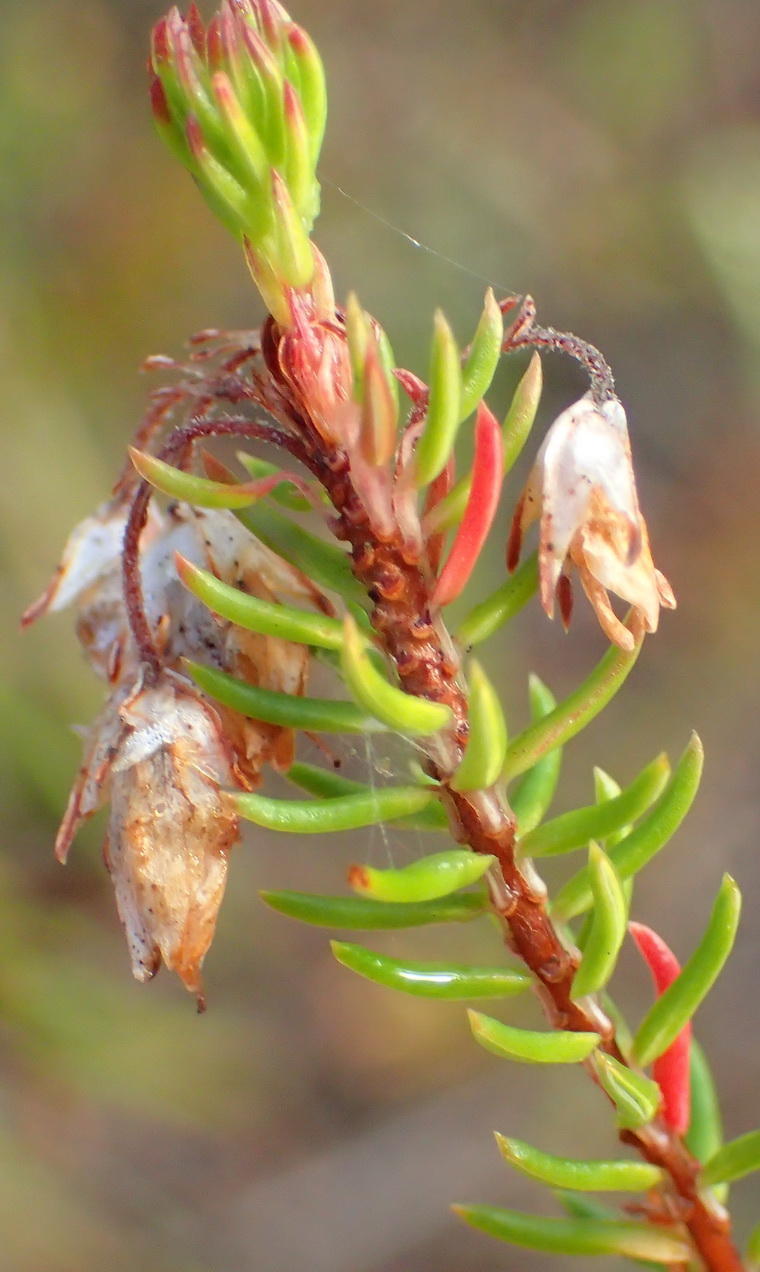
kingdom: Plantae
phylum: Tracheophyta
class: Magnoliopsida
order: Ericales
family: Ericaceae
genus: Erica
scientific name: Erica cubica
